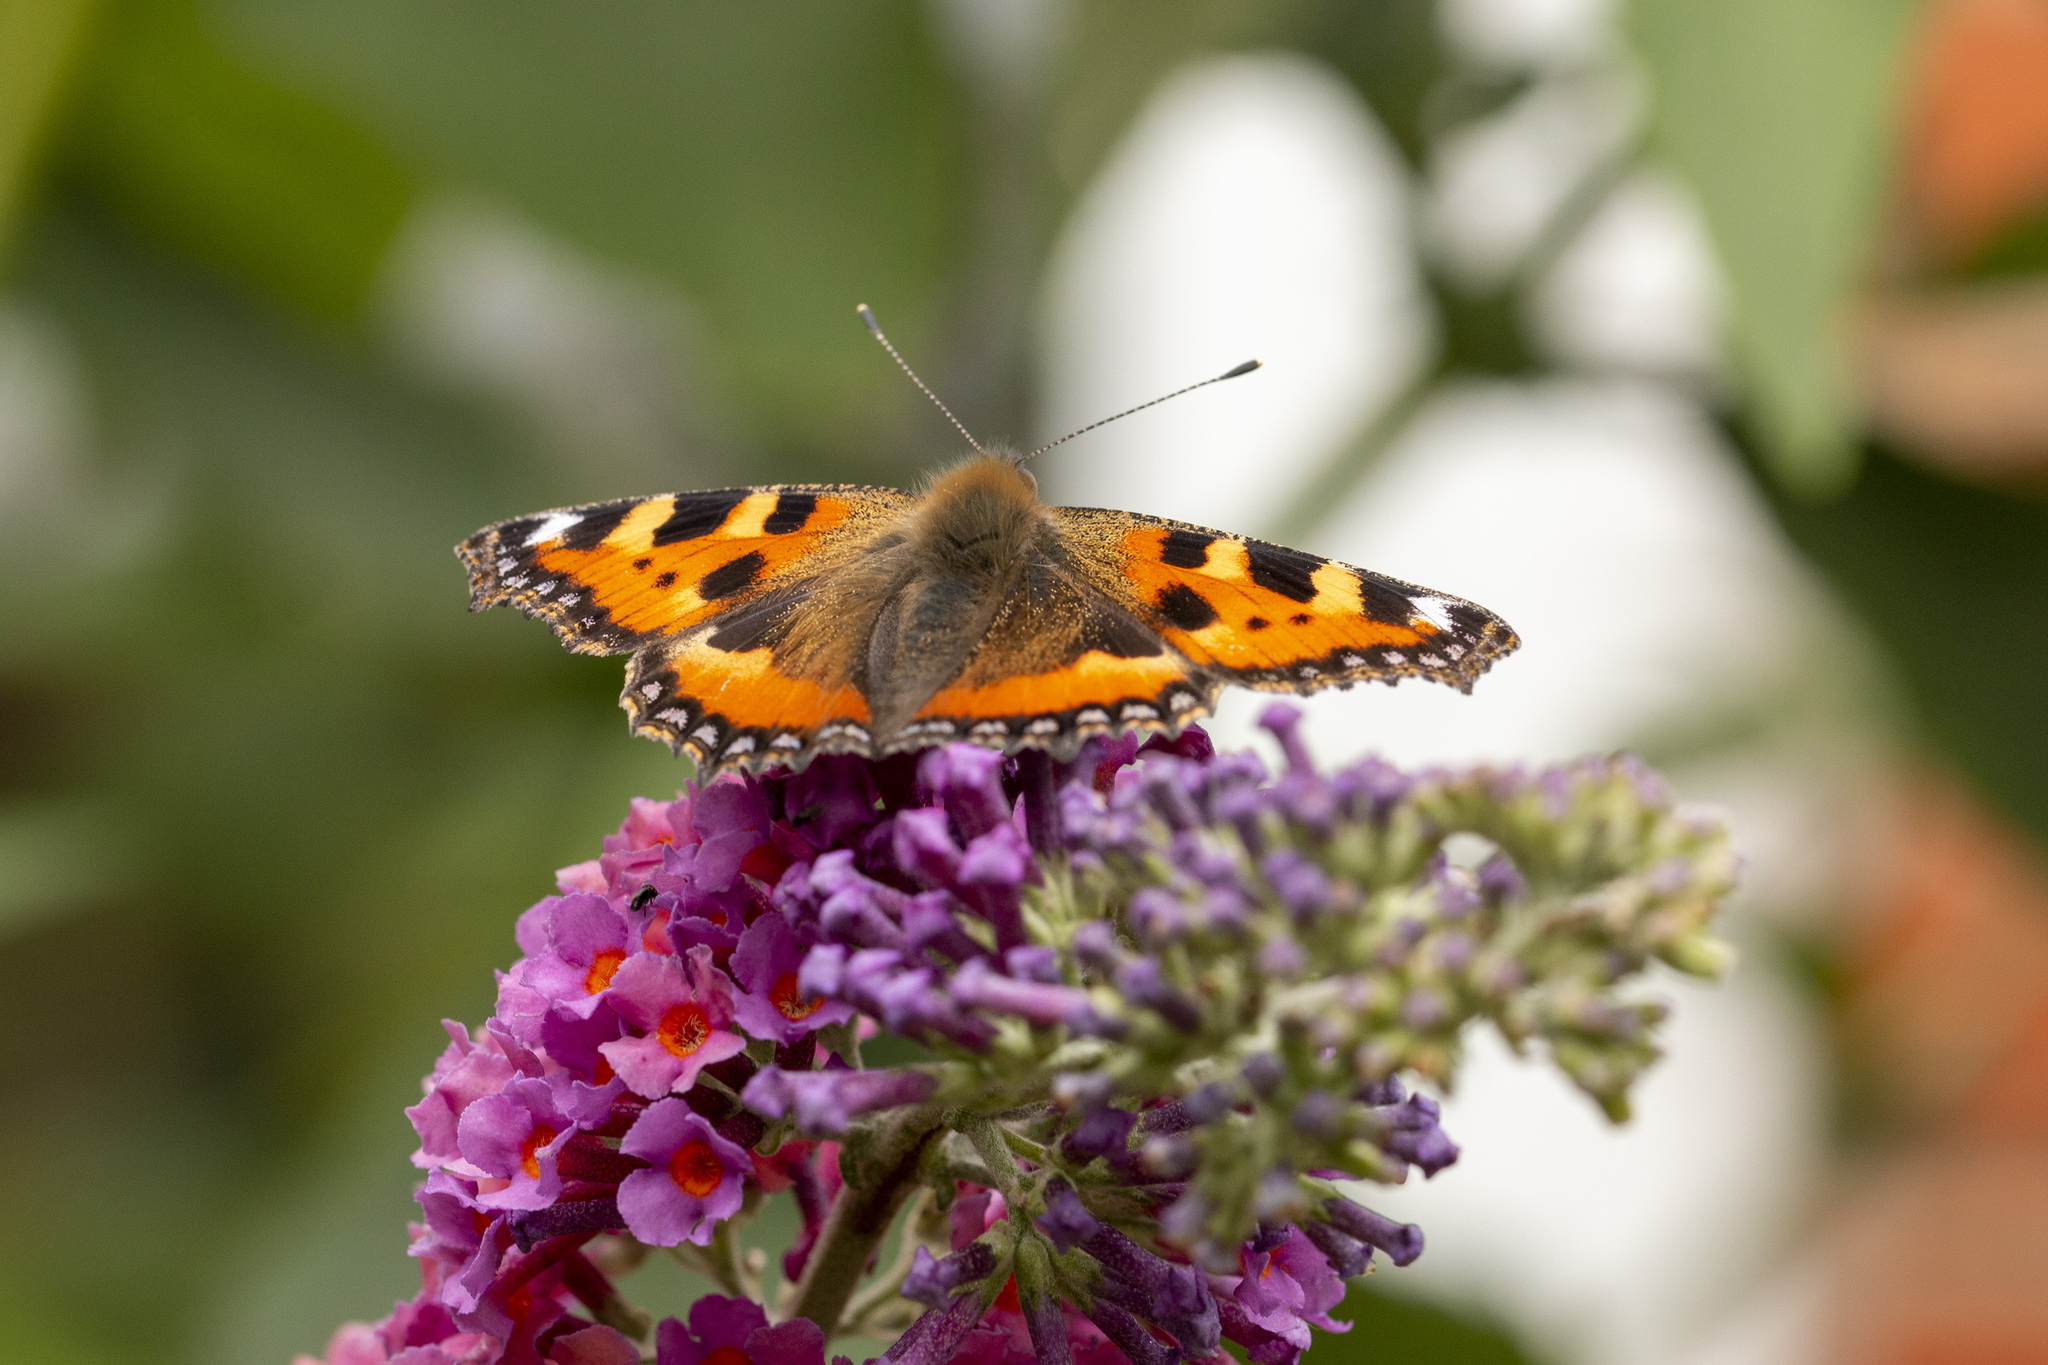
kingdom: Animalia
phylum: Arthropoda
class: Insecta
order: Lepidoptera
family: Nymphalidae
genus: Aglais
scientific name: Aglais urticae
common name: Small tortoiseshell
